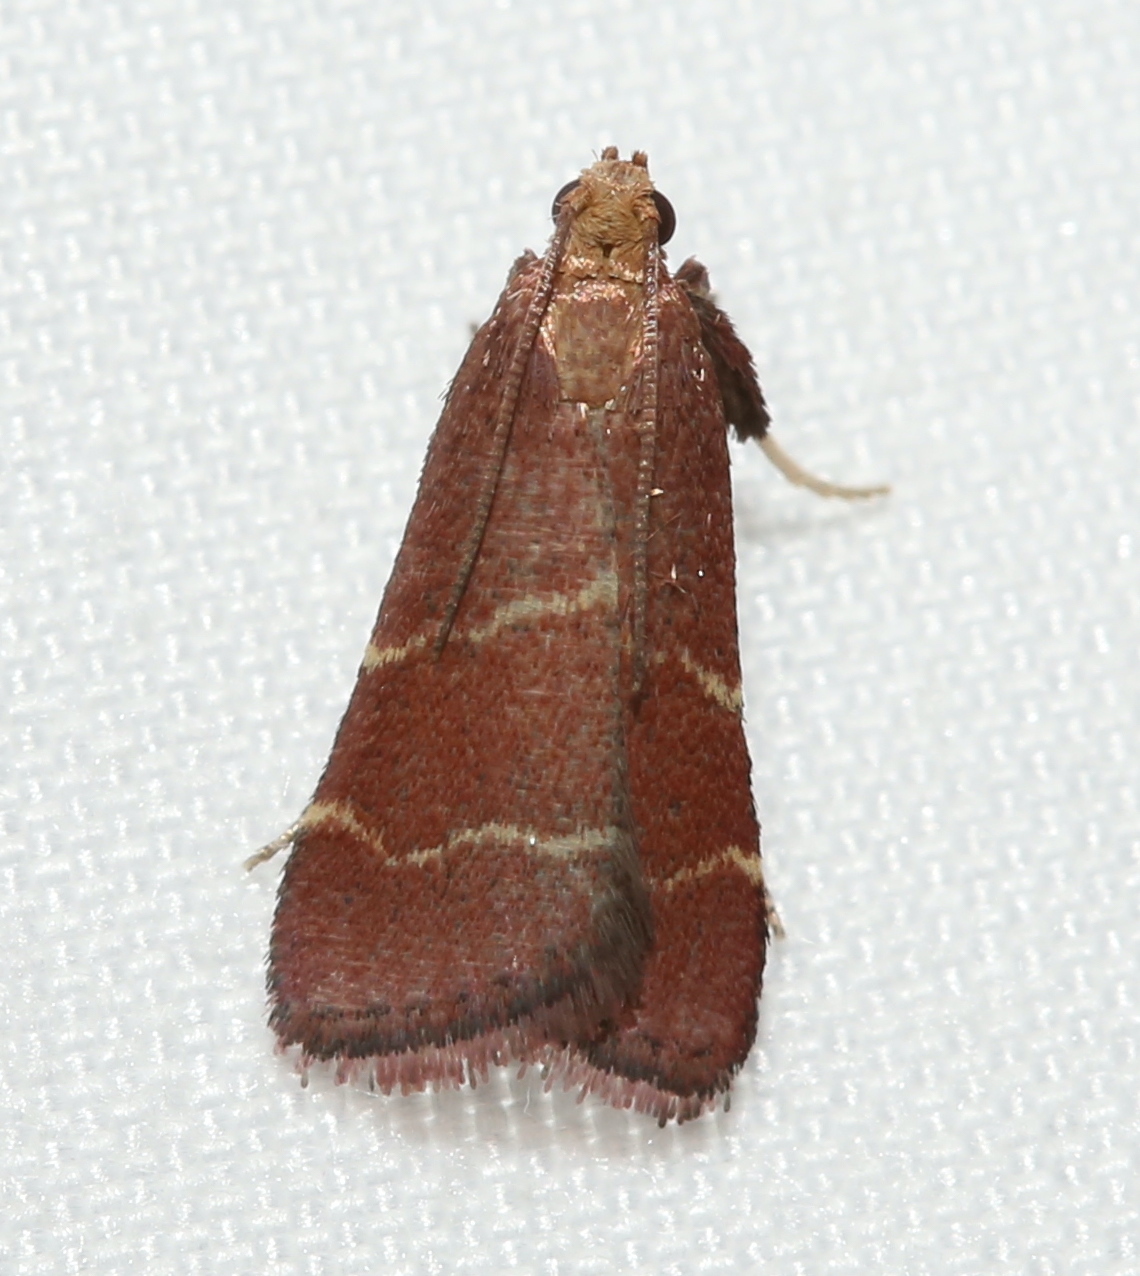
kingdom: Animalia
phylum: Arthropoda
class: Insecta
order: Lepidoptera
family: Pyralidae
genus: Arta
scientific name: Arta statalis
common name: Posturing arta moth
